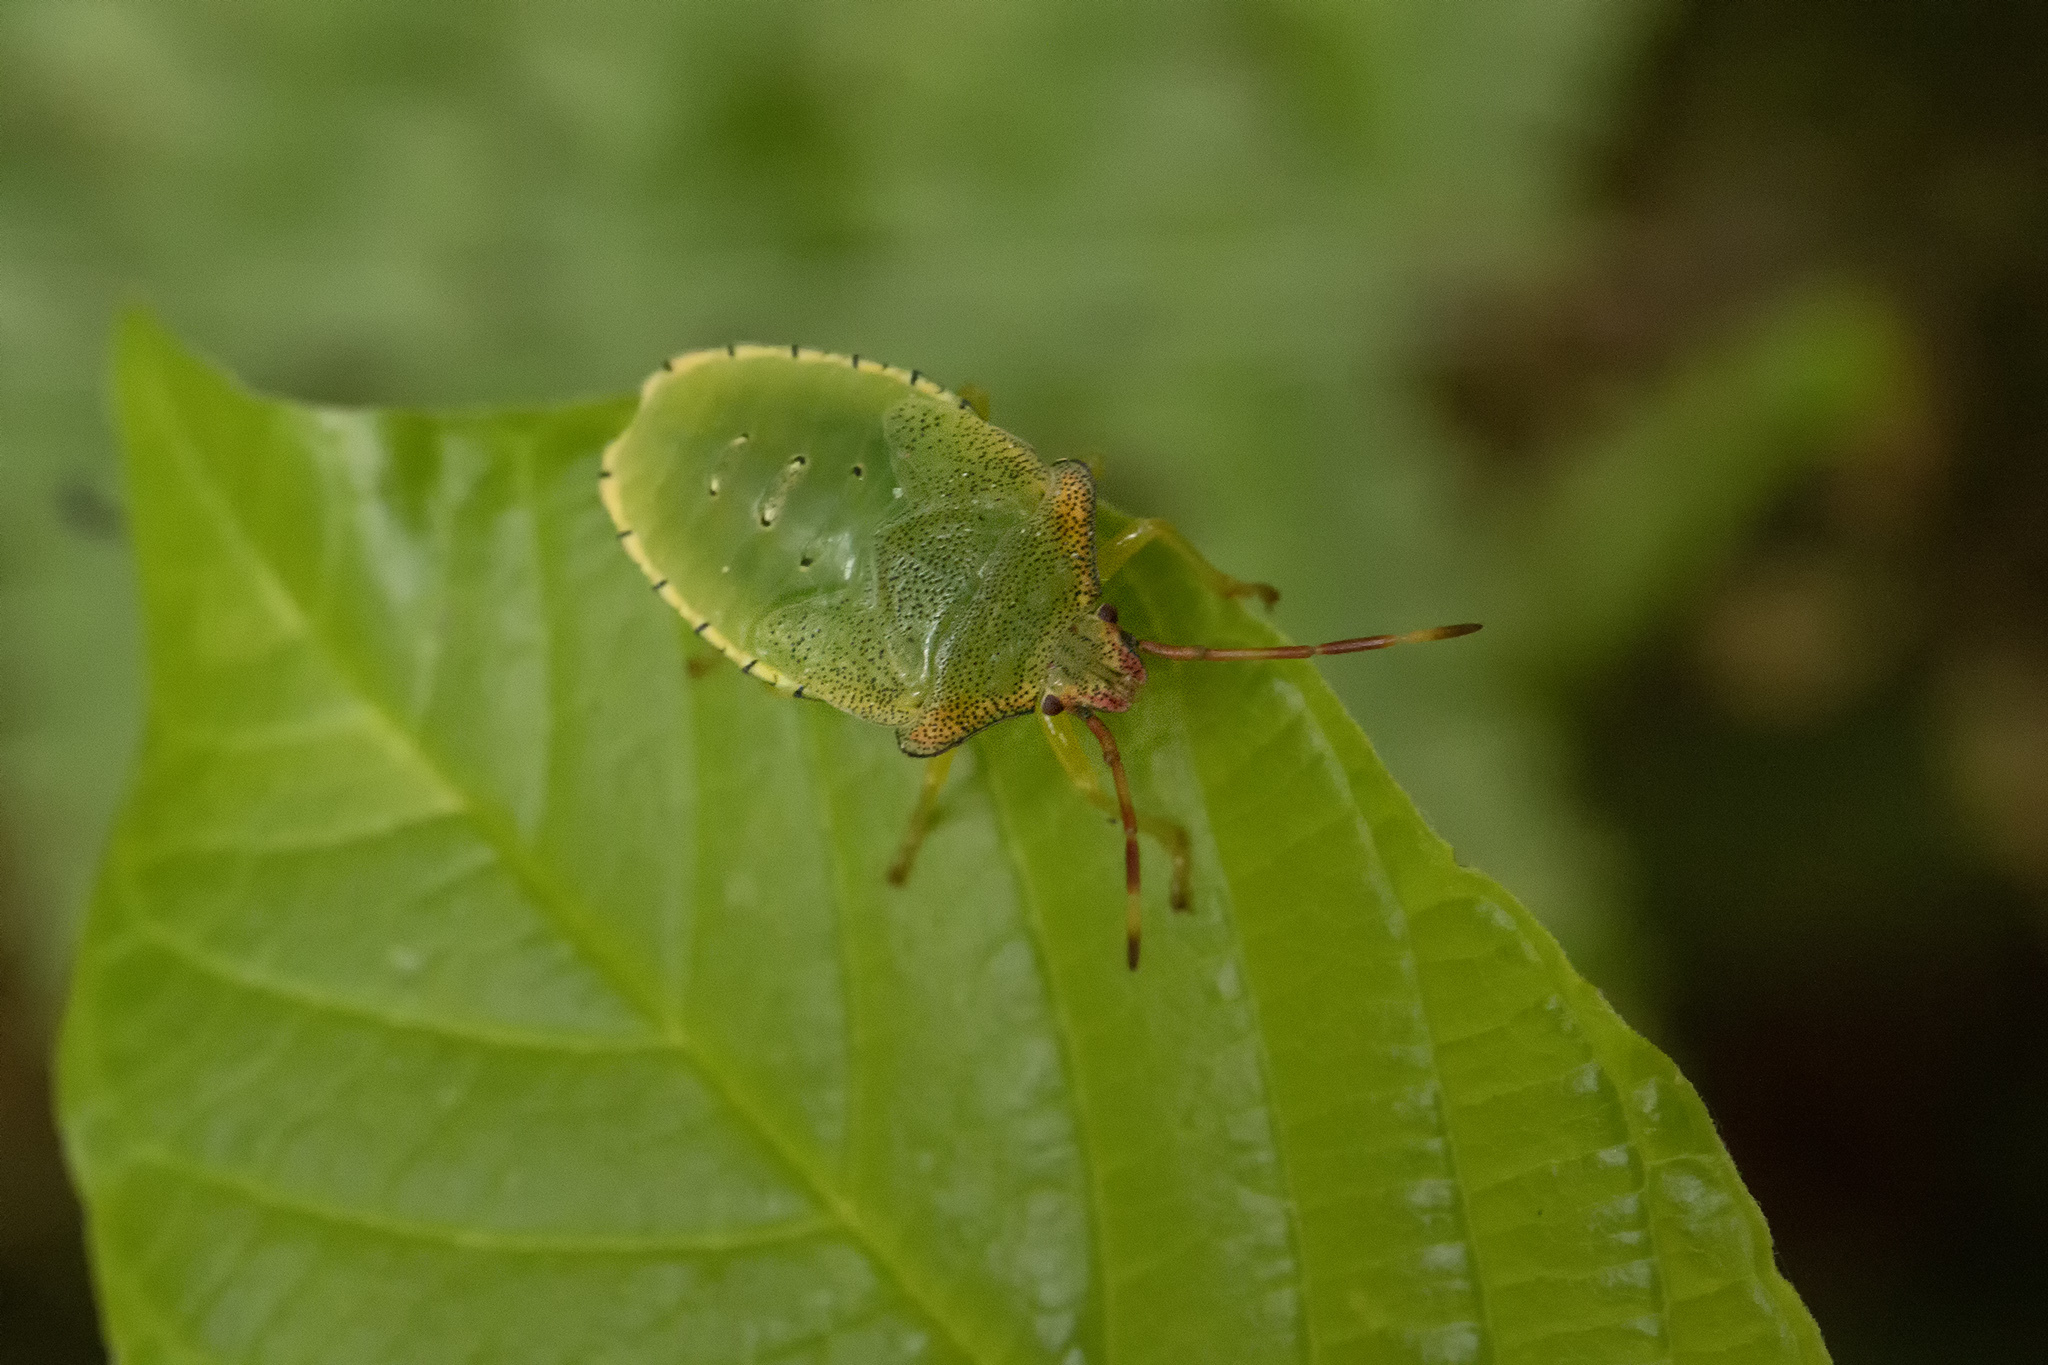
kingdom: Animalia
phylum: Arthropoda
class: Insecta
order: Hemiptera
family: Acanthosomatidae
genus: Acanthosoma
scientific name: Acanthosoma haemorrhoidale
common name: Hawthorn shieldbug
